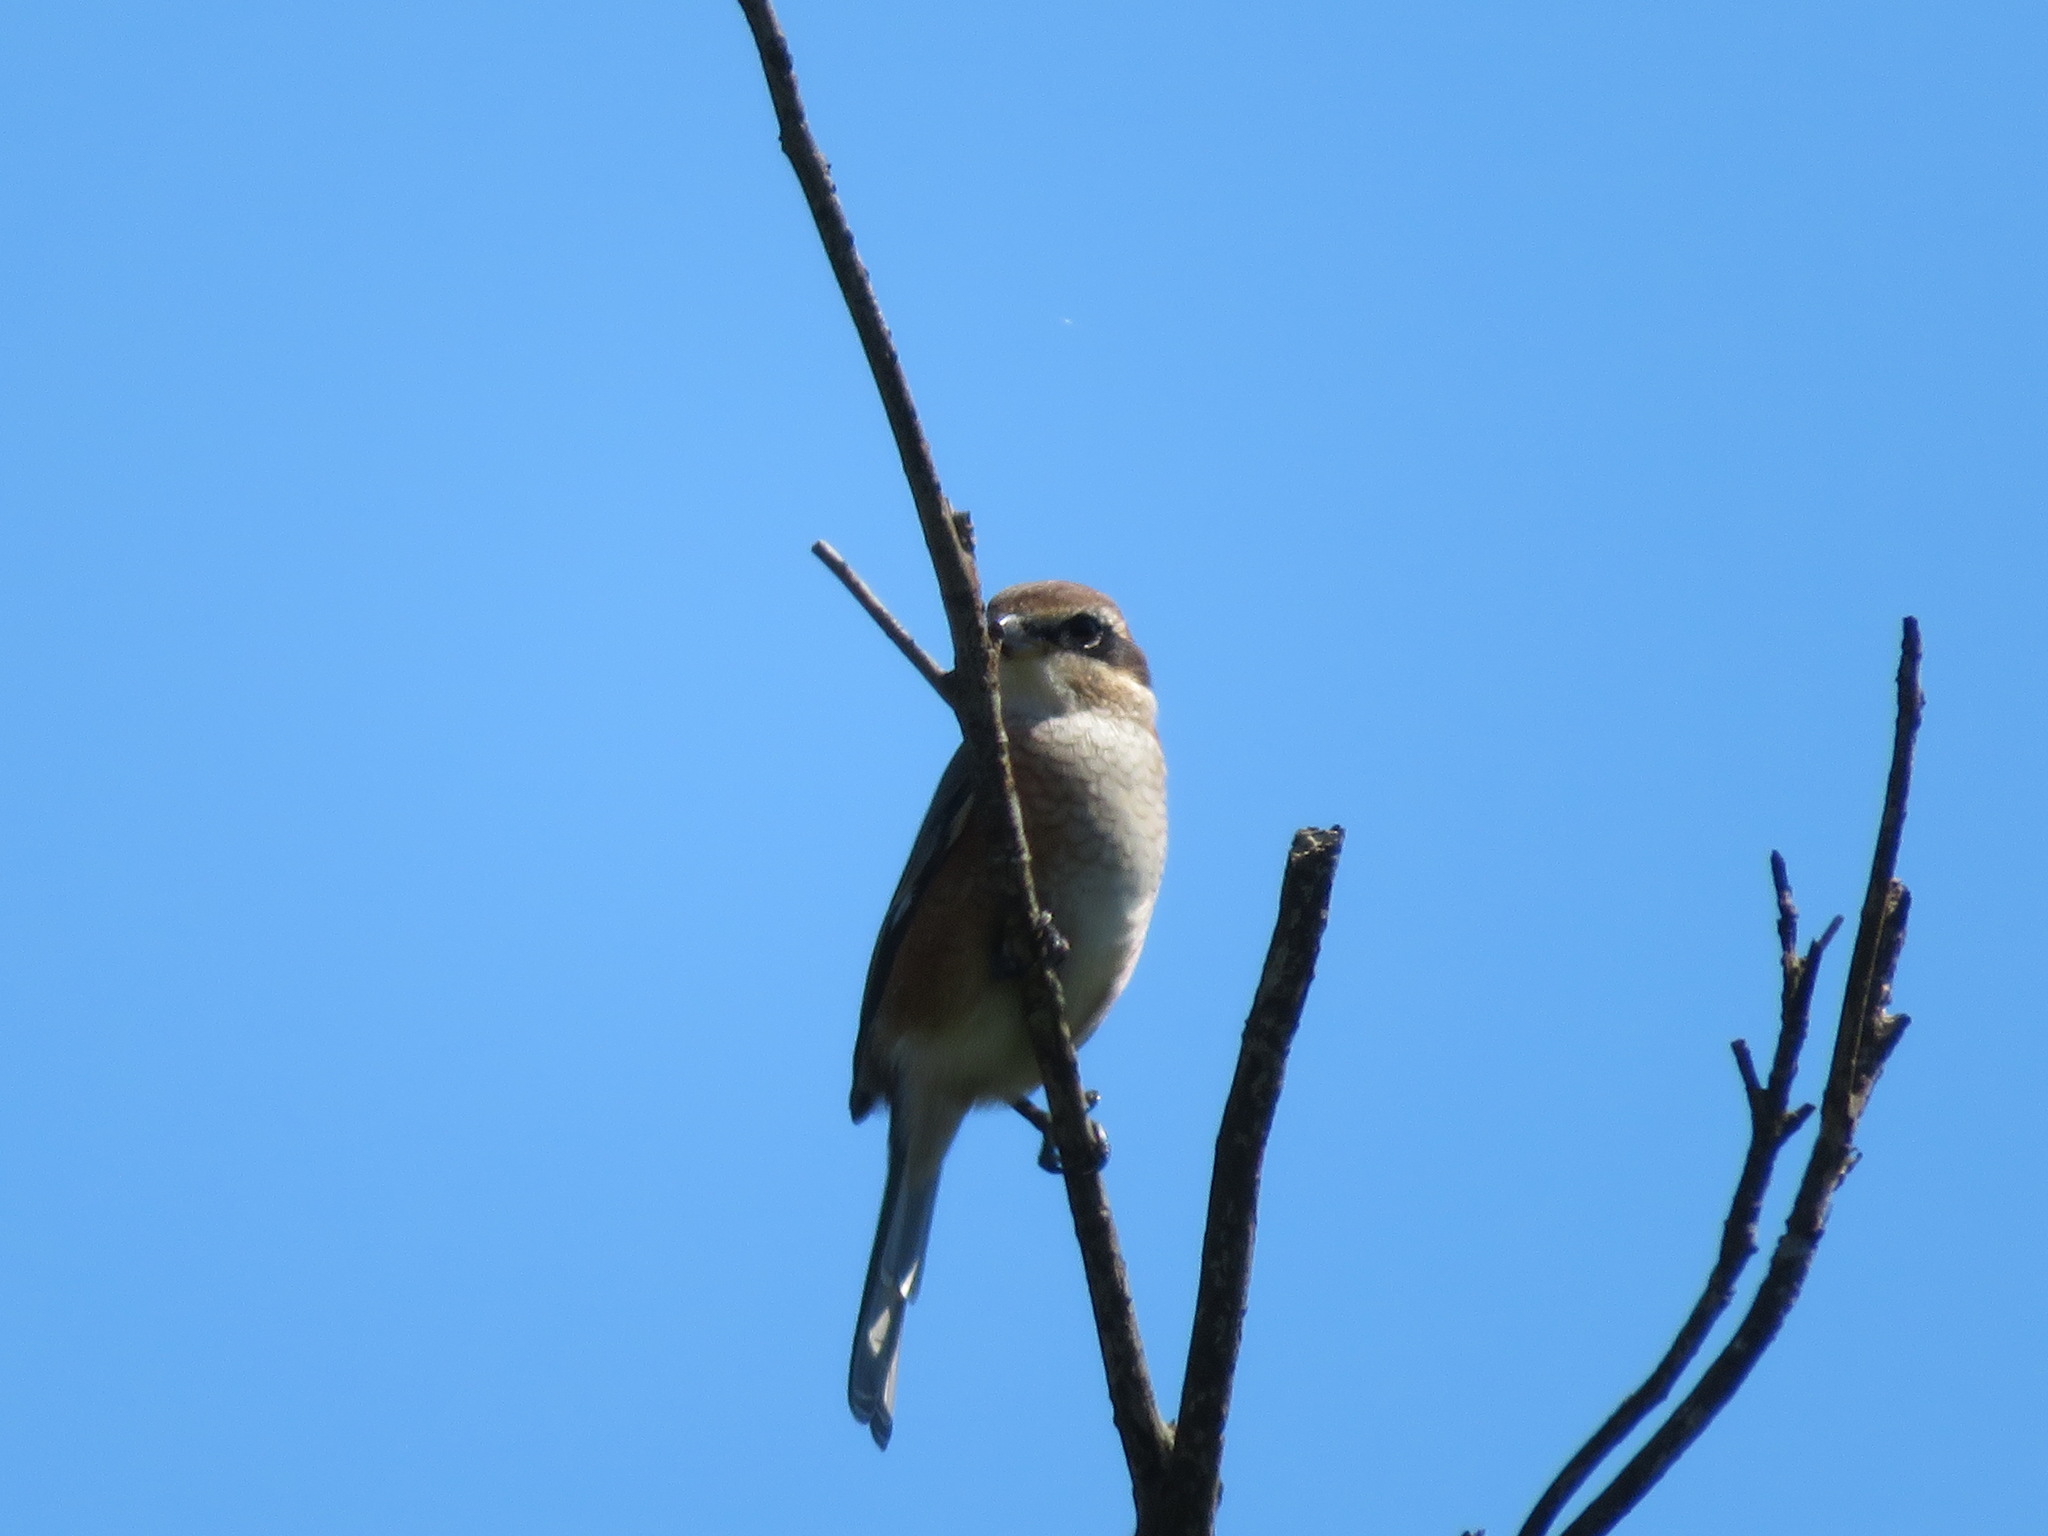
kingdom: Animalia
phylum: Chordata
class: Aves
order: Passeriformes
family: Laniidae
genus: Lanius
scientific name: Lanius bucephalus
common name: Bull-headed shrike
